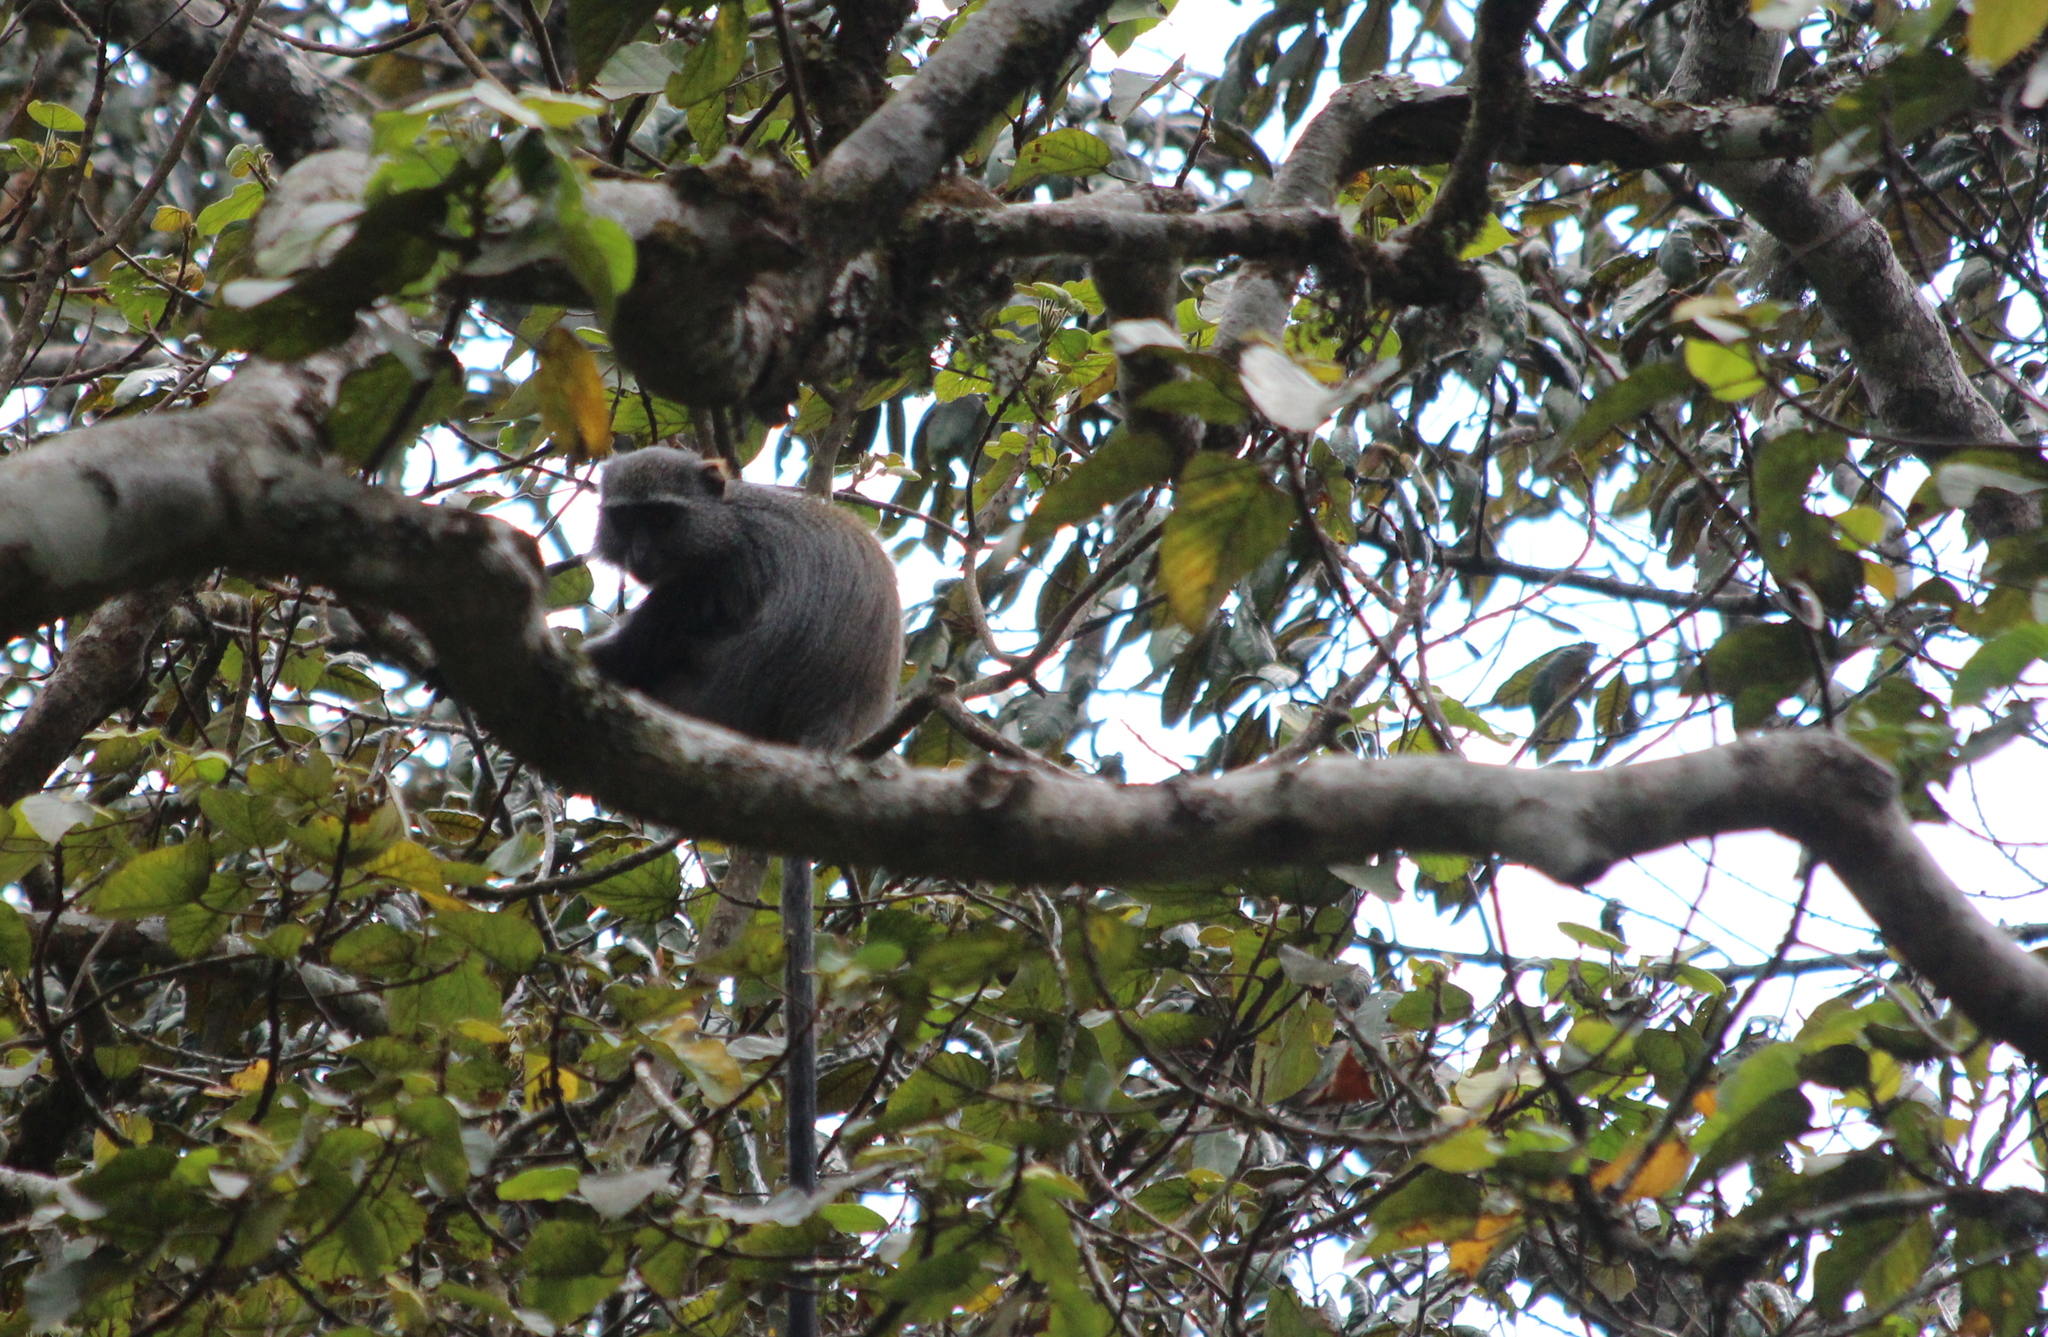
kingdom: Animalia
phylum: Chordata
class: Mammalia
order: Primates
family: Cercopithecidae
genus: Cercopithecus
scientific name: Cercopithecus mitis
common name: Blue monkey
